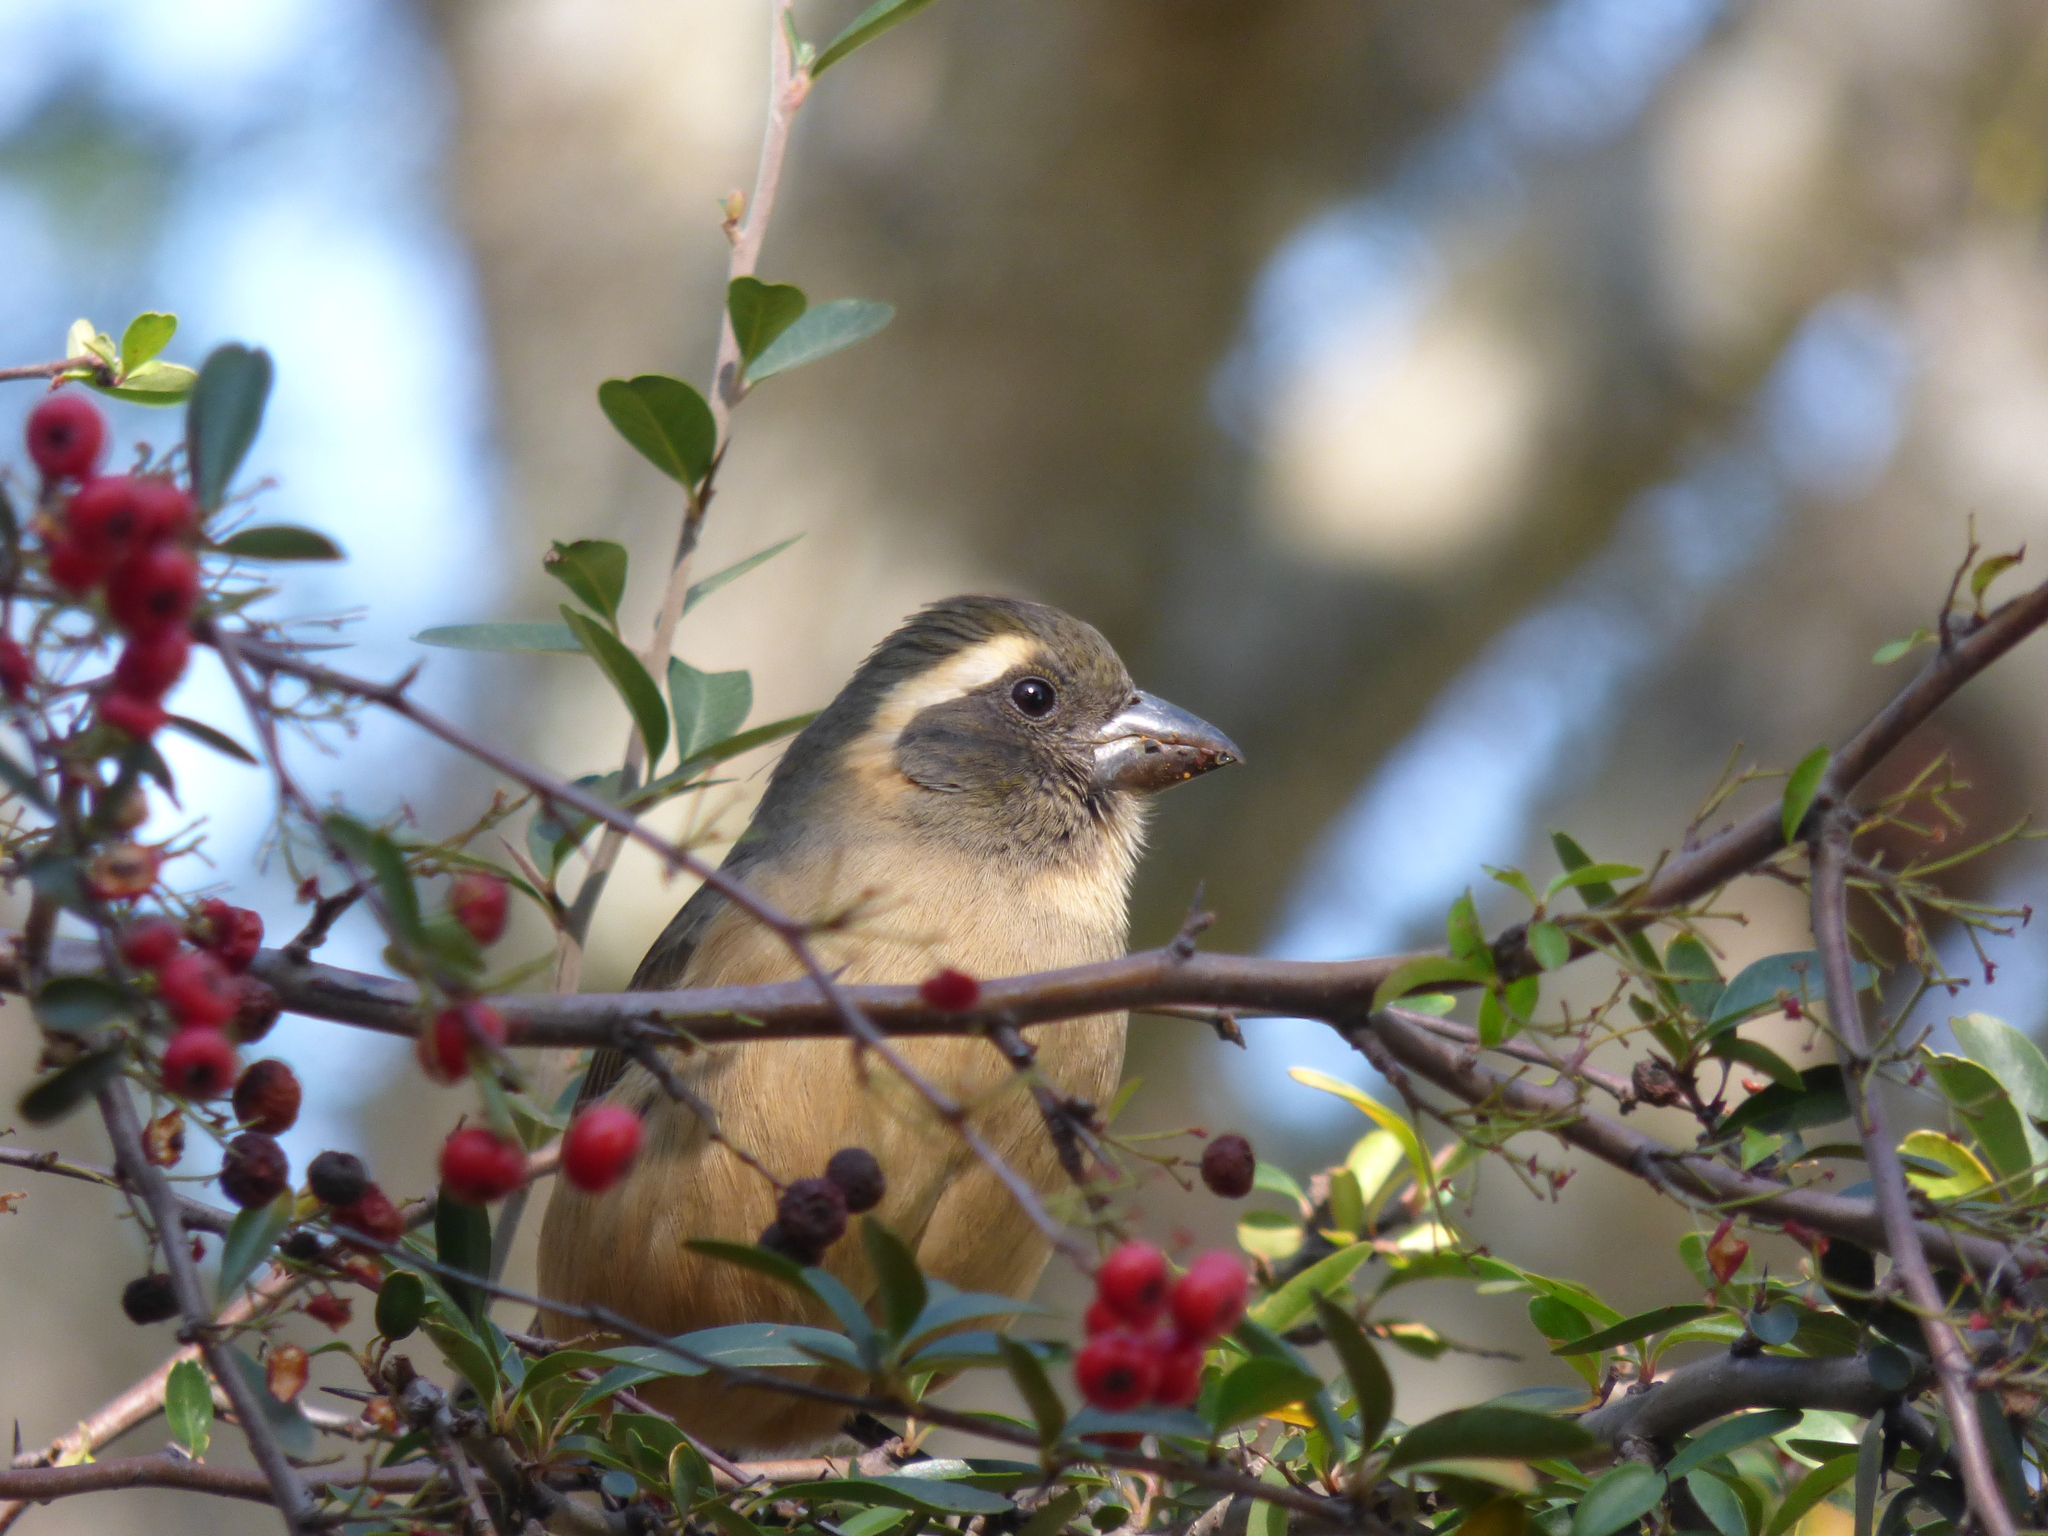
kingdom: Animalia
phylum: Chordata
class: Aves
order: Passeriformes
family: Thraupidae
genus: Saltator
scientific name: Saltator aurantiirostris
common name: Golden-billed saltator
